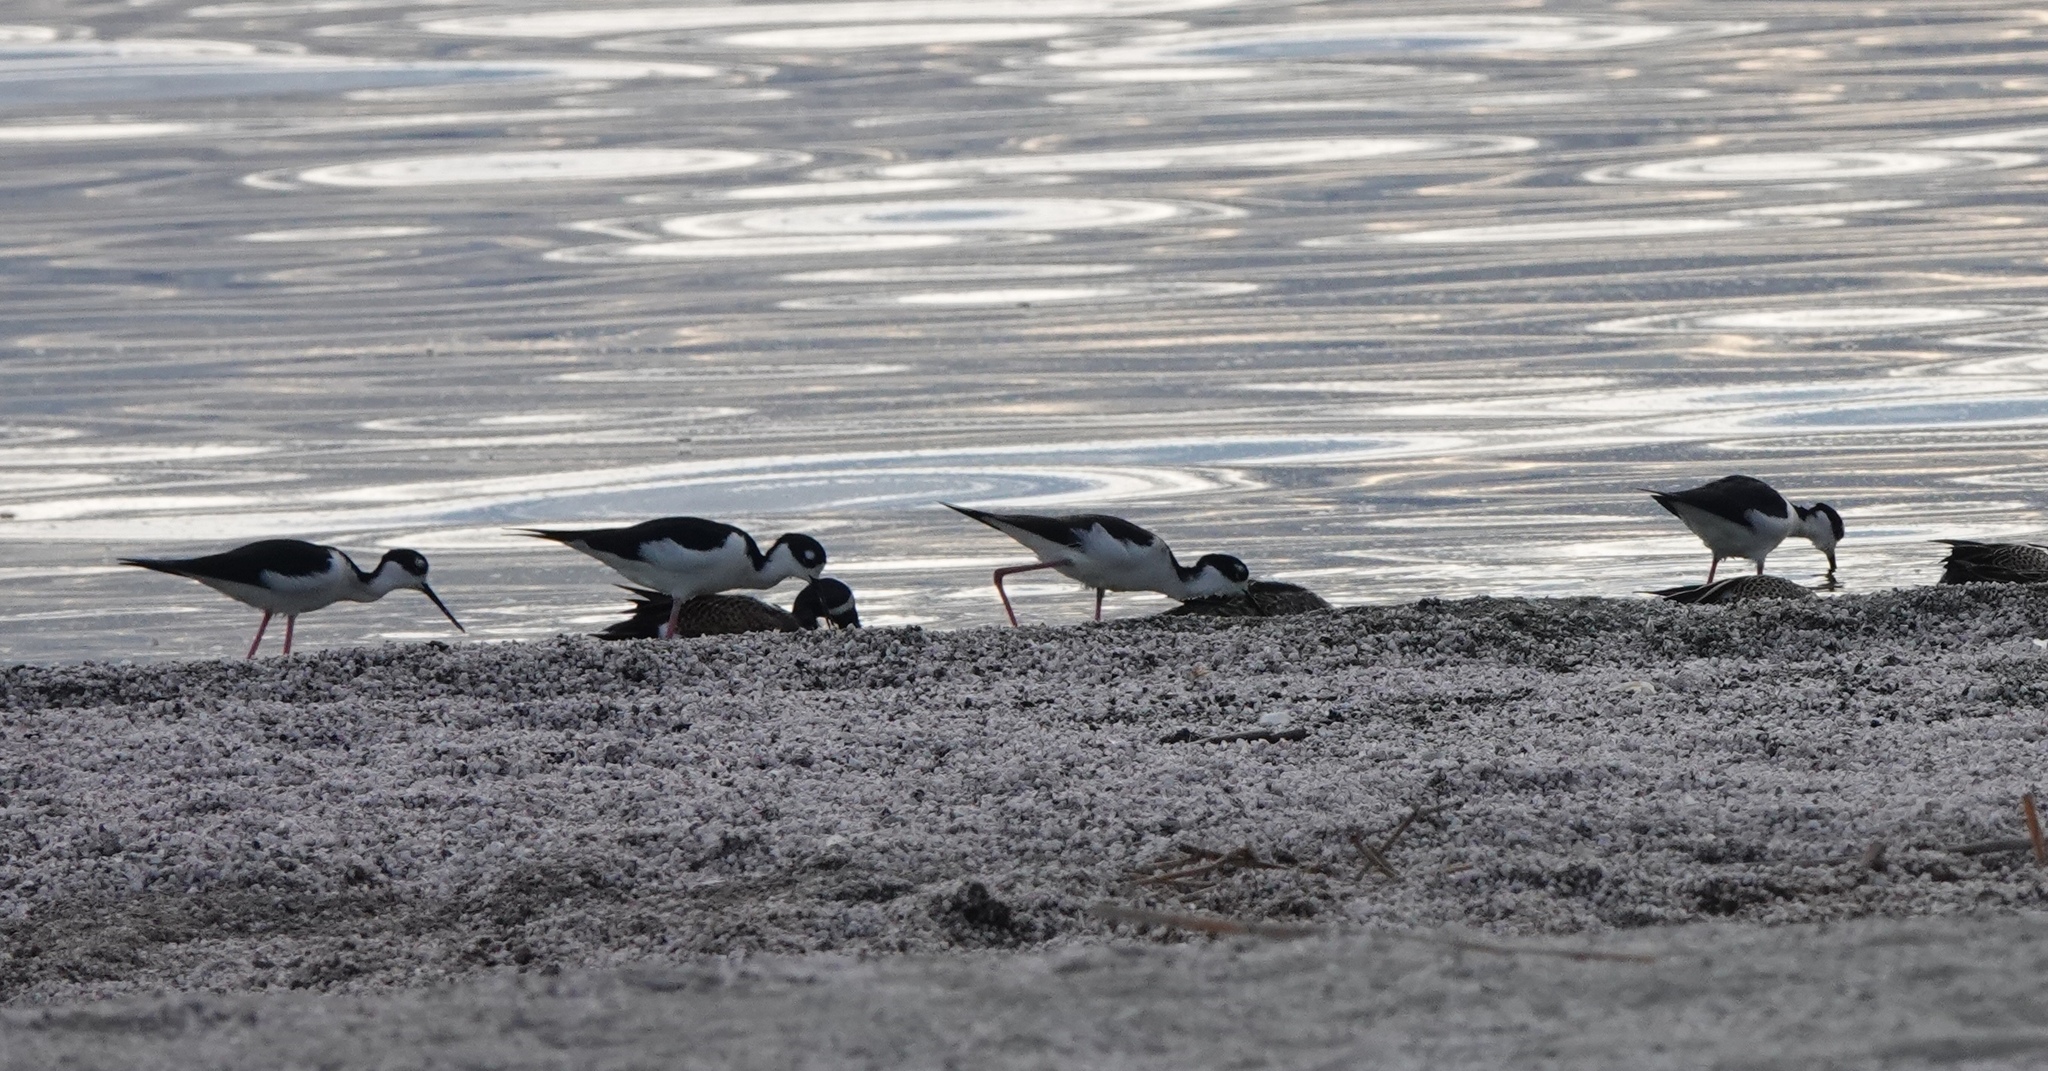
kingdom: Animalia
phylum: Chordata
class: Aves
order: Charadriiformes
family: Recurvirostridae
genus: Himantopus
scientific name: Himantopus mexicanus
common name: Black-necked stilt
